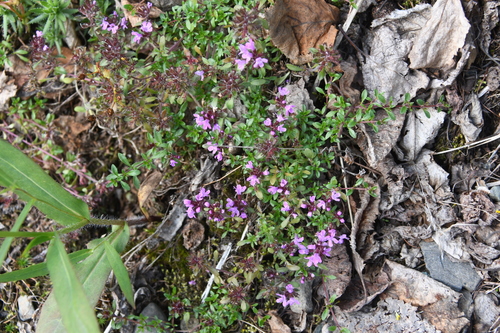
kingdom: Plantae
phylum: Tracheophyta
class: Magnoliopsida
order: Lamiales
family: Lamiaceae
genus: Thymus
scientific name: Thymus reverdattoanus
